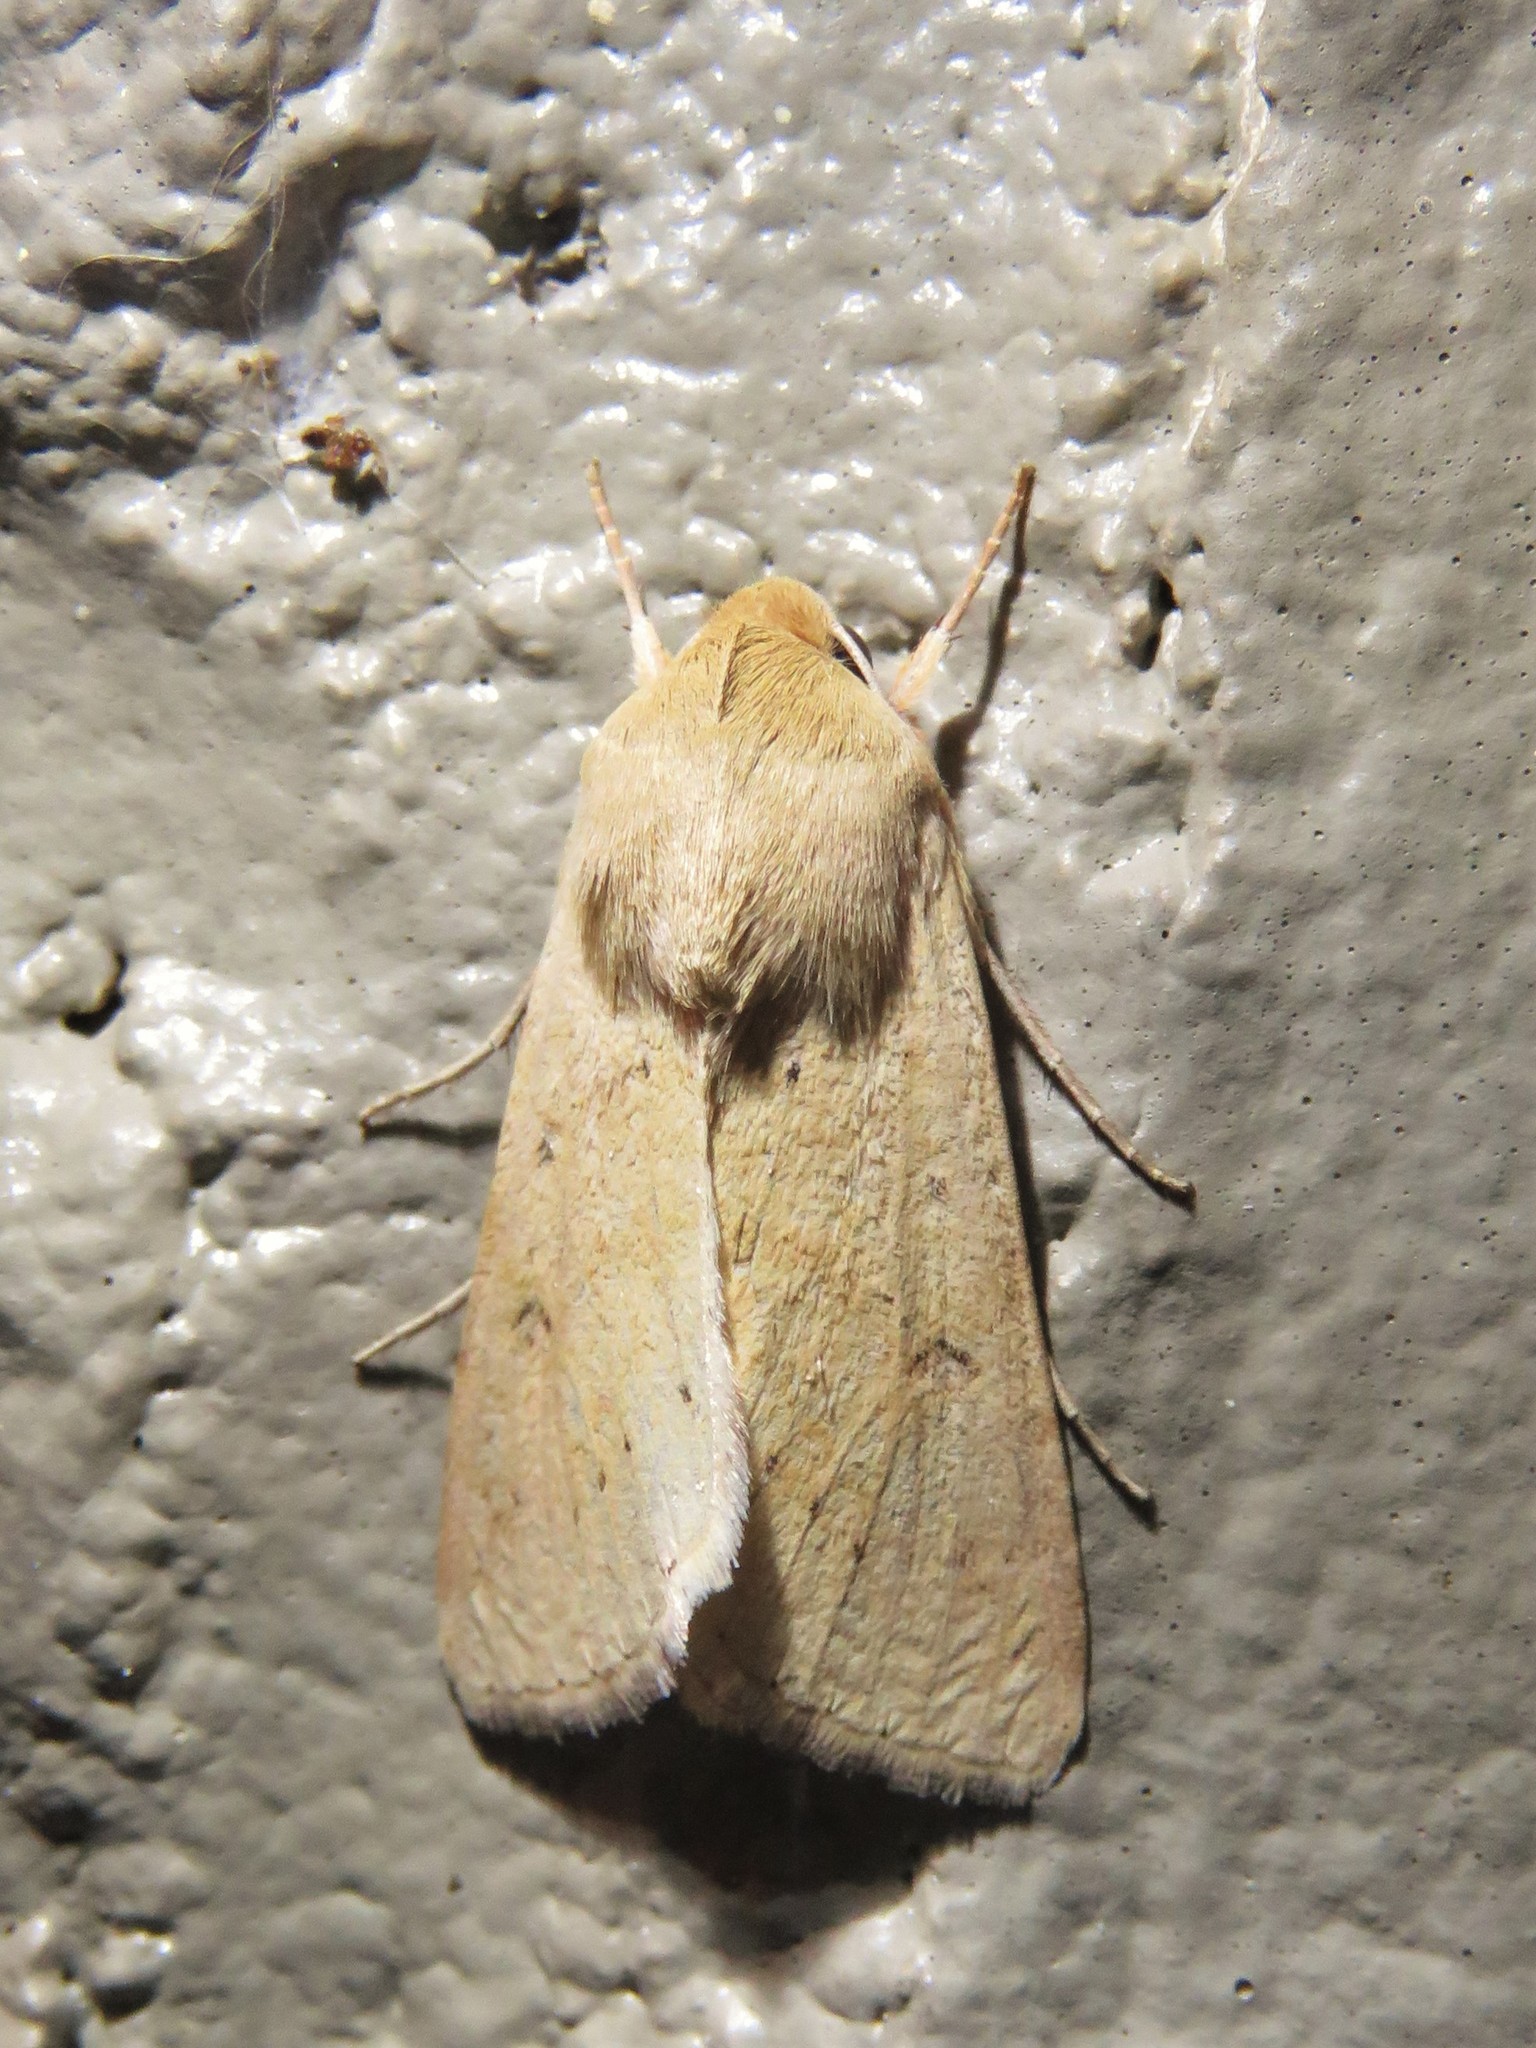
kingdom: Animalia
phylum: Arthropoda
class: Insecta
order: Lepidoptera
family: Noctuidae
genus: Helicoverpa
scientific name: Helicoverpa zea
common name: Bollworm
